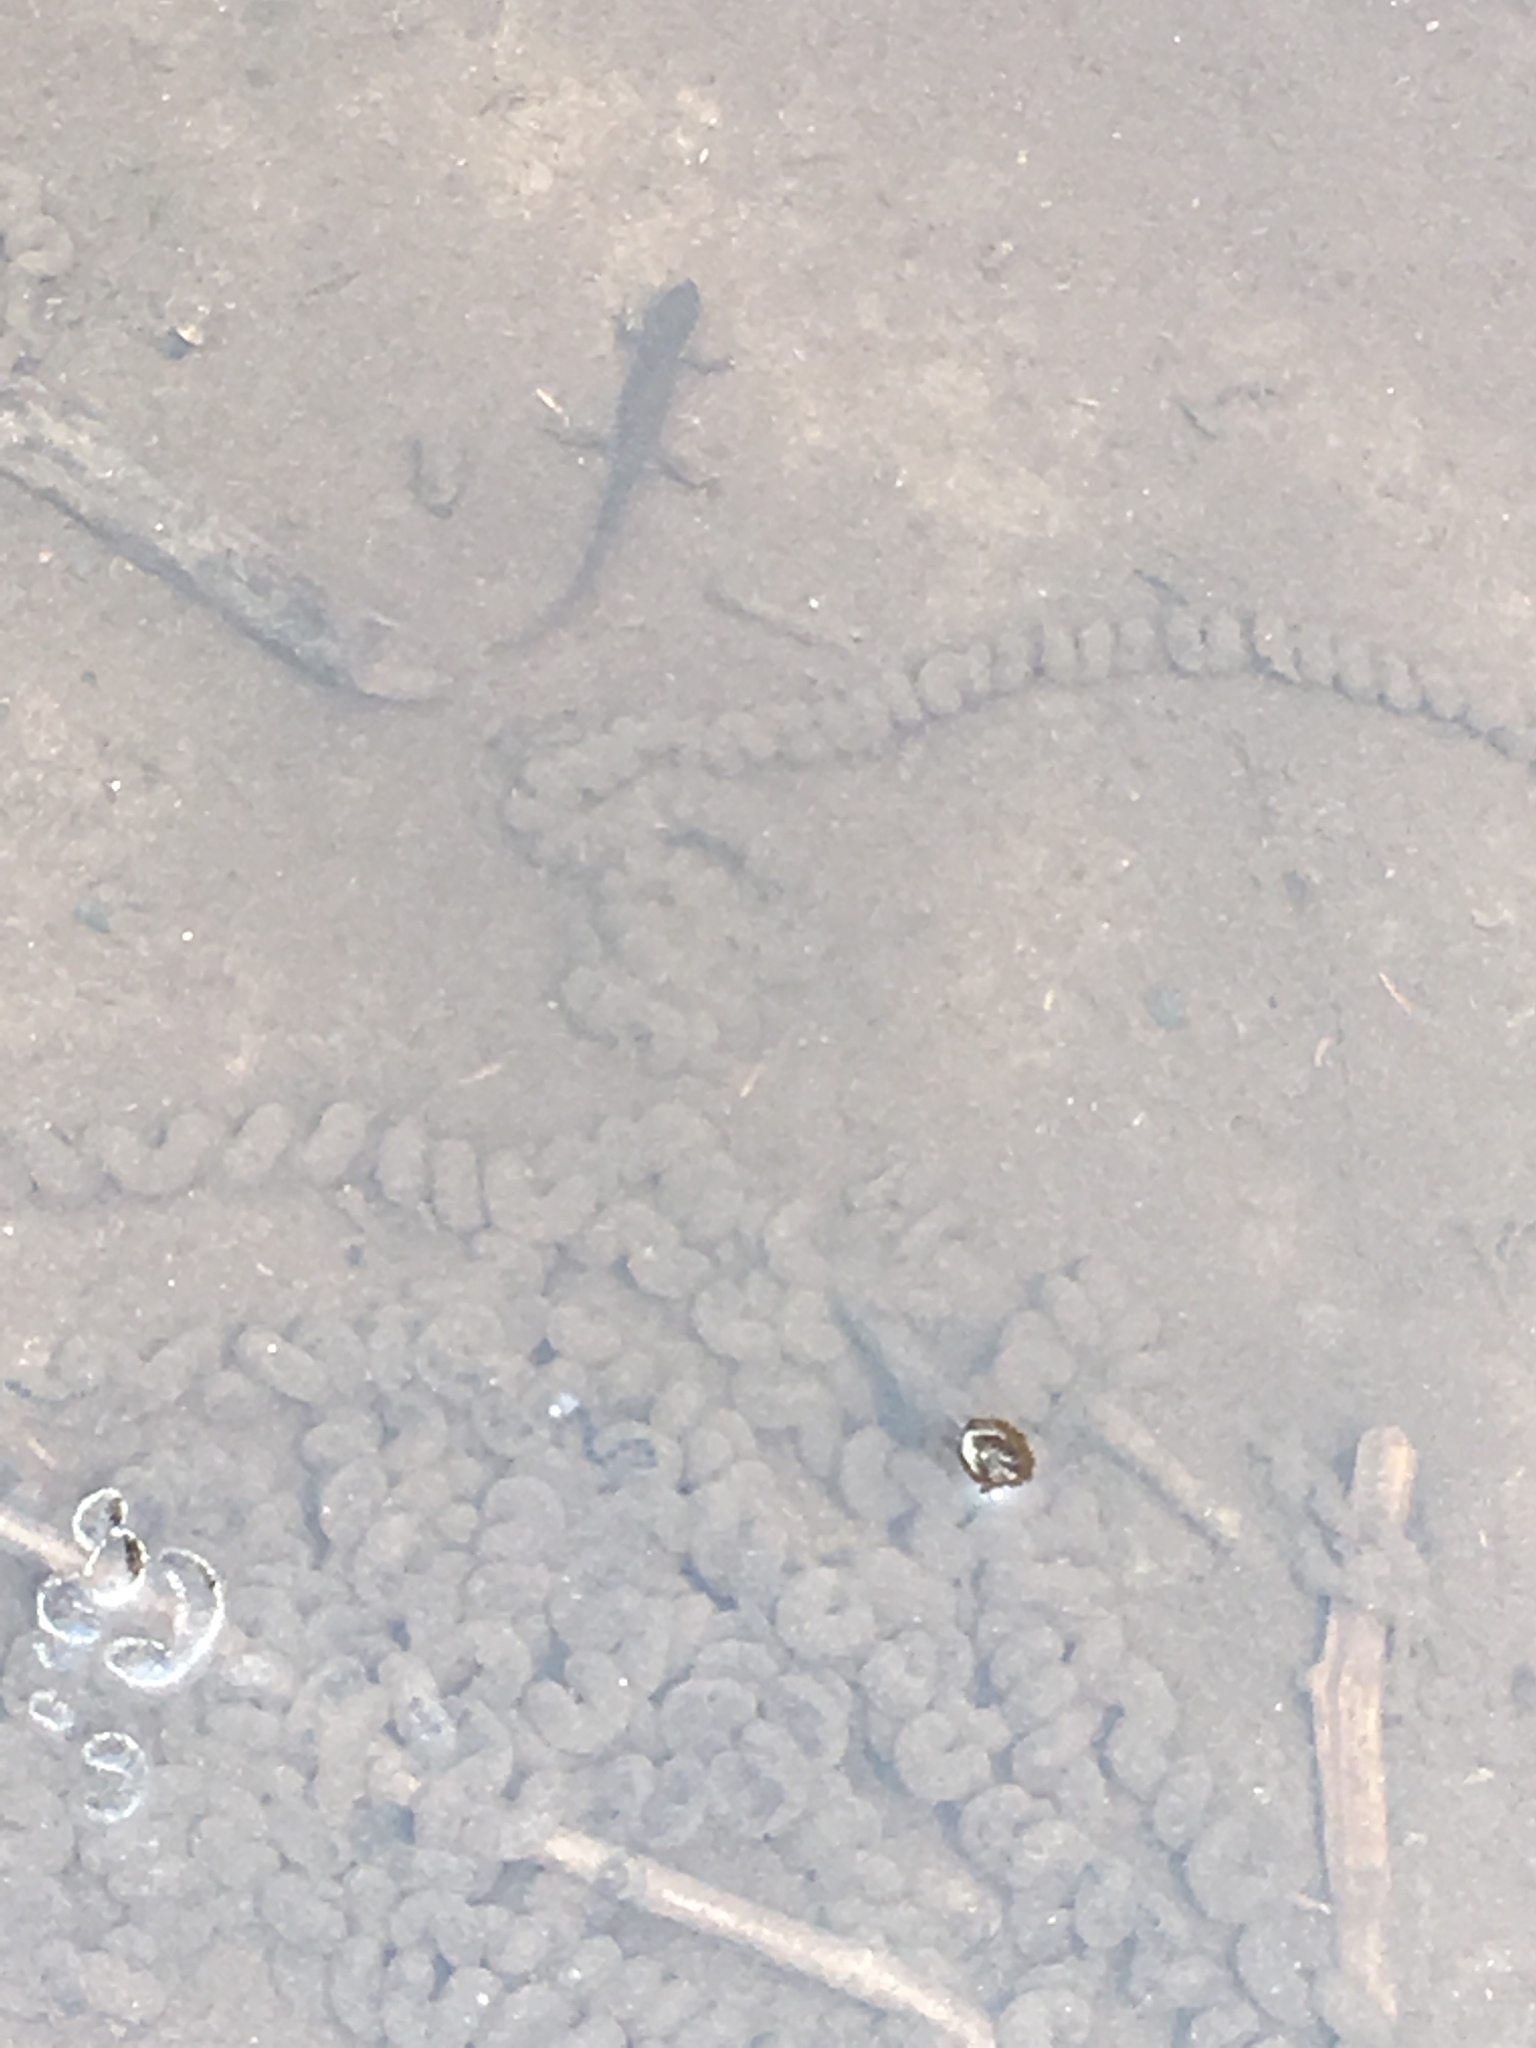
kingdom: Animalia
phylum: Chordata
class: Amphibia
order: Anura
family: Bufonidae
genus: Anaxyrus
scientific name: Anaxyrus americanus
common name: American toad
